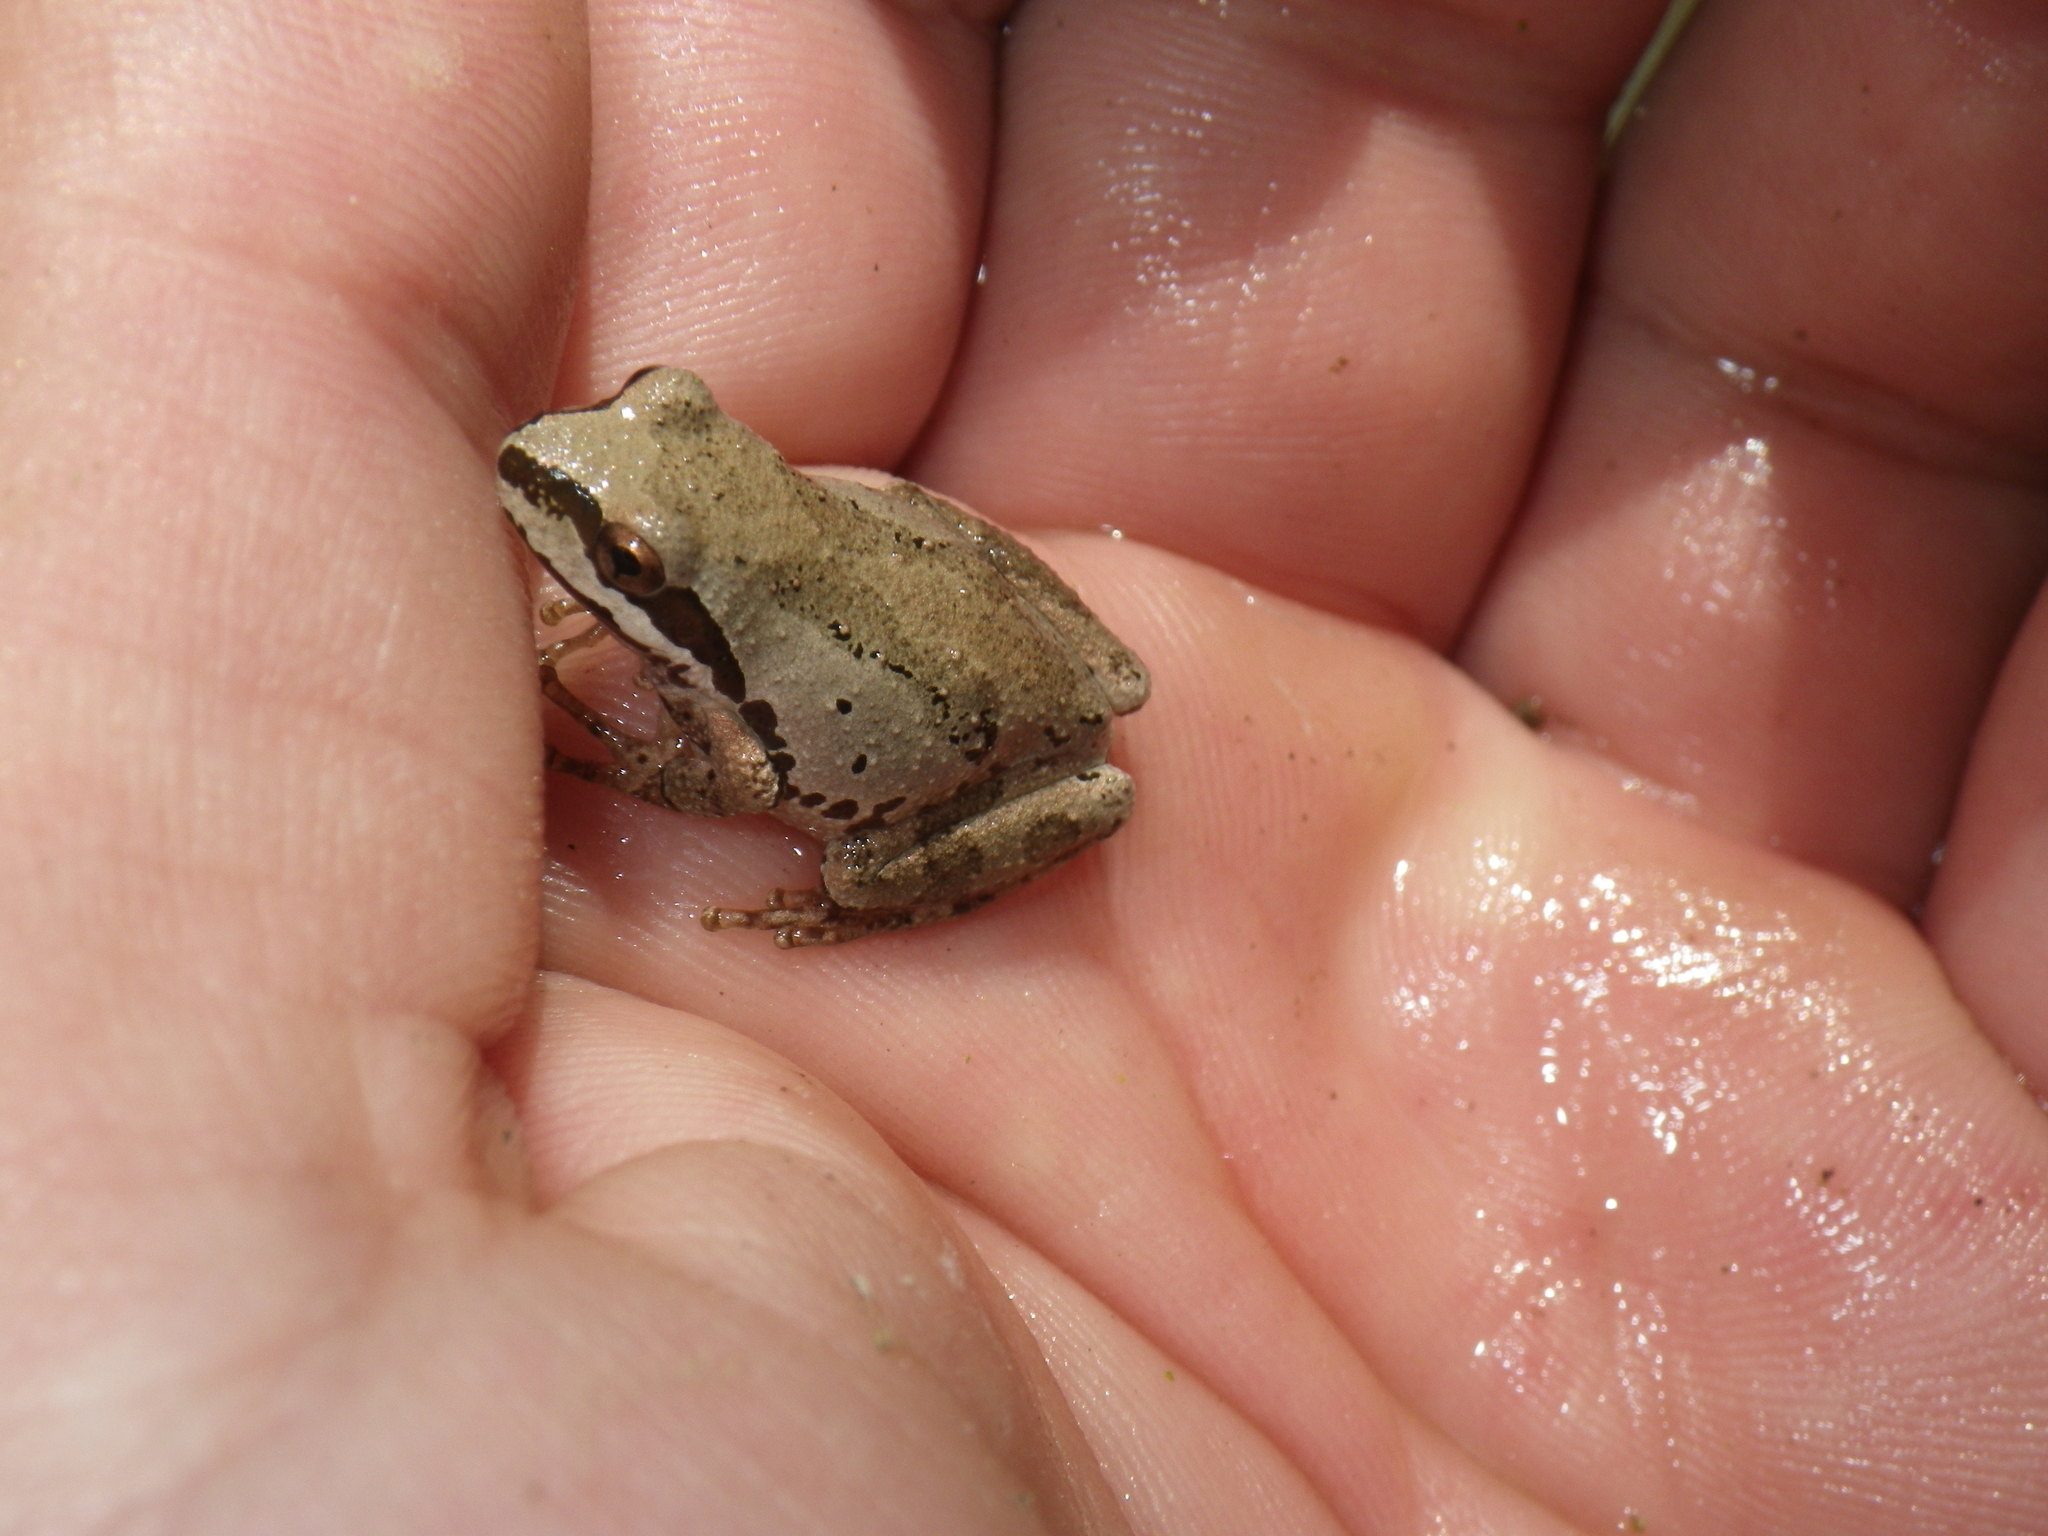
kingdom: Animalia
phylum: Chordata
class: Amphibia
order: Anura
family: Hylidae
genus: Pseudacris
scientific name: Pseudacris regilla
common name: Pacific chorus frog
